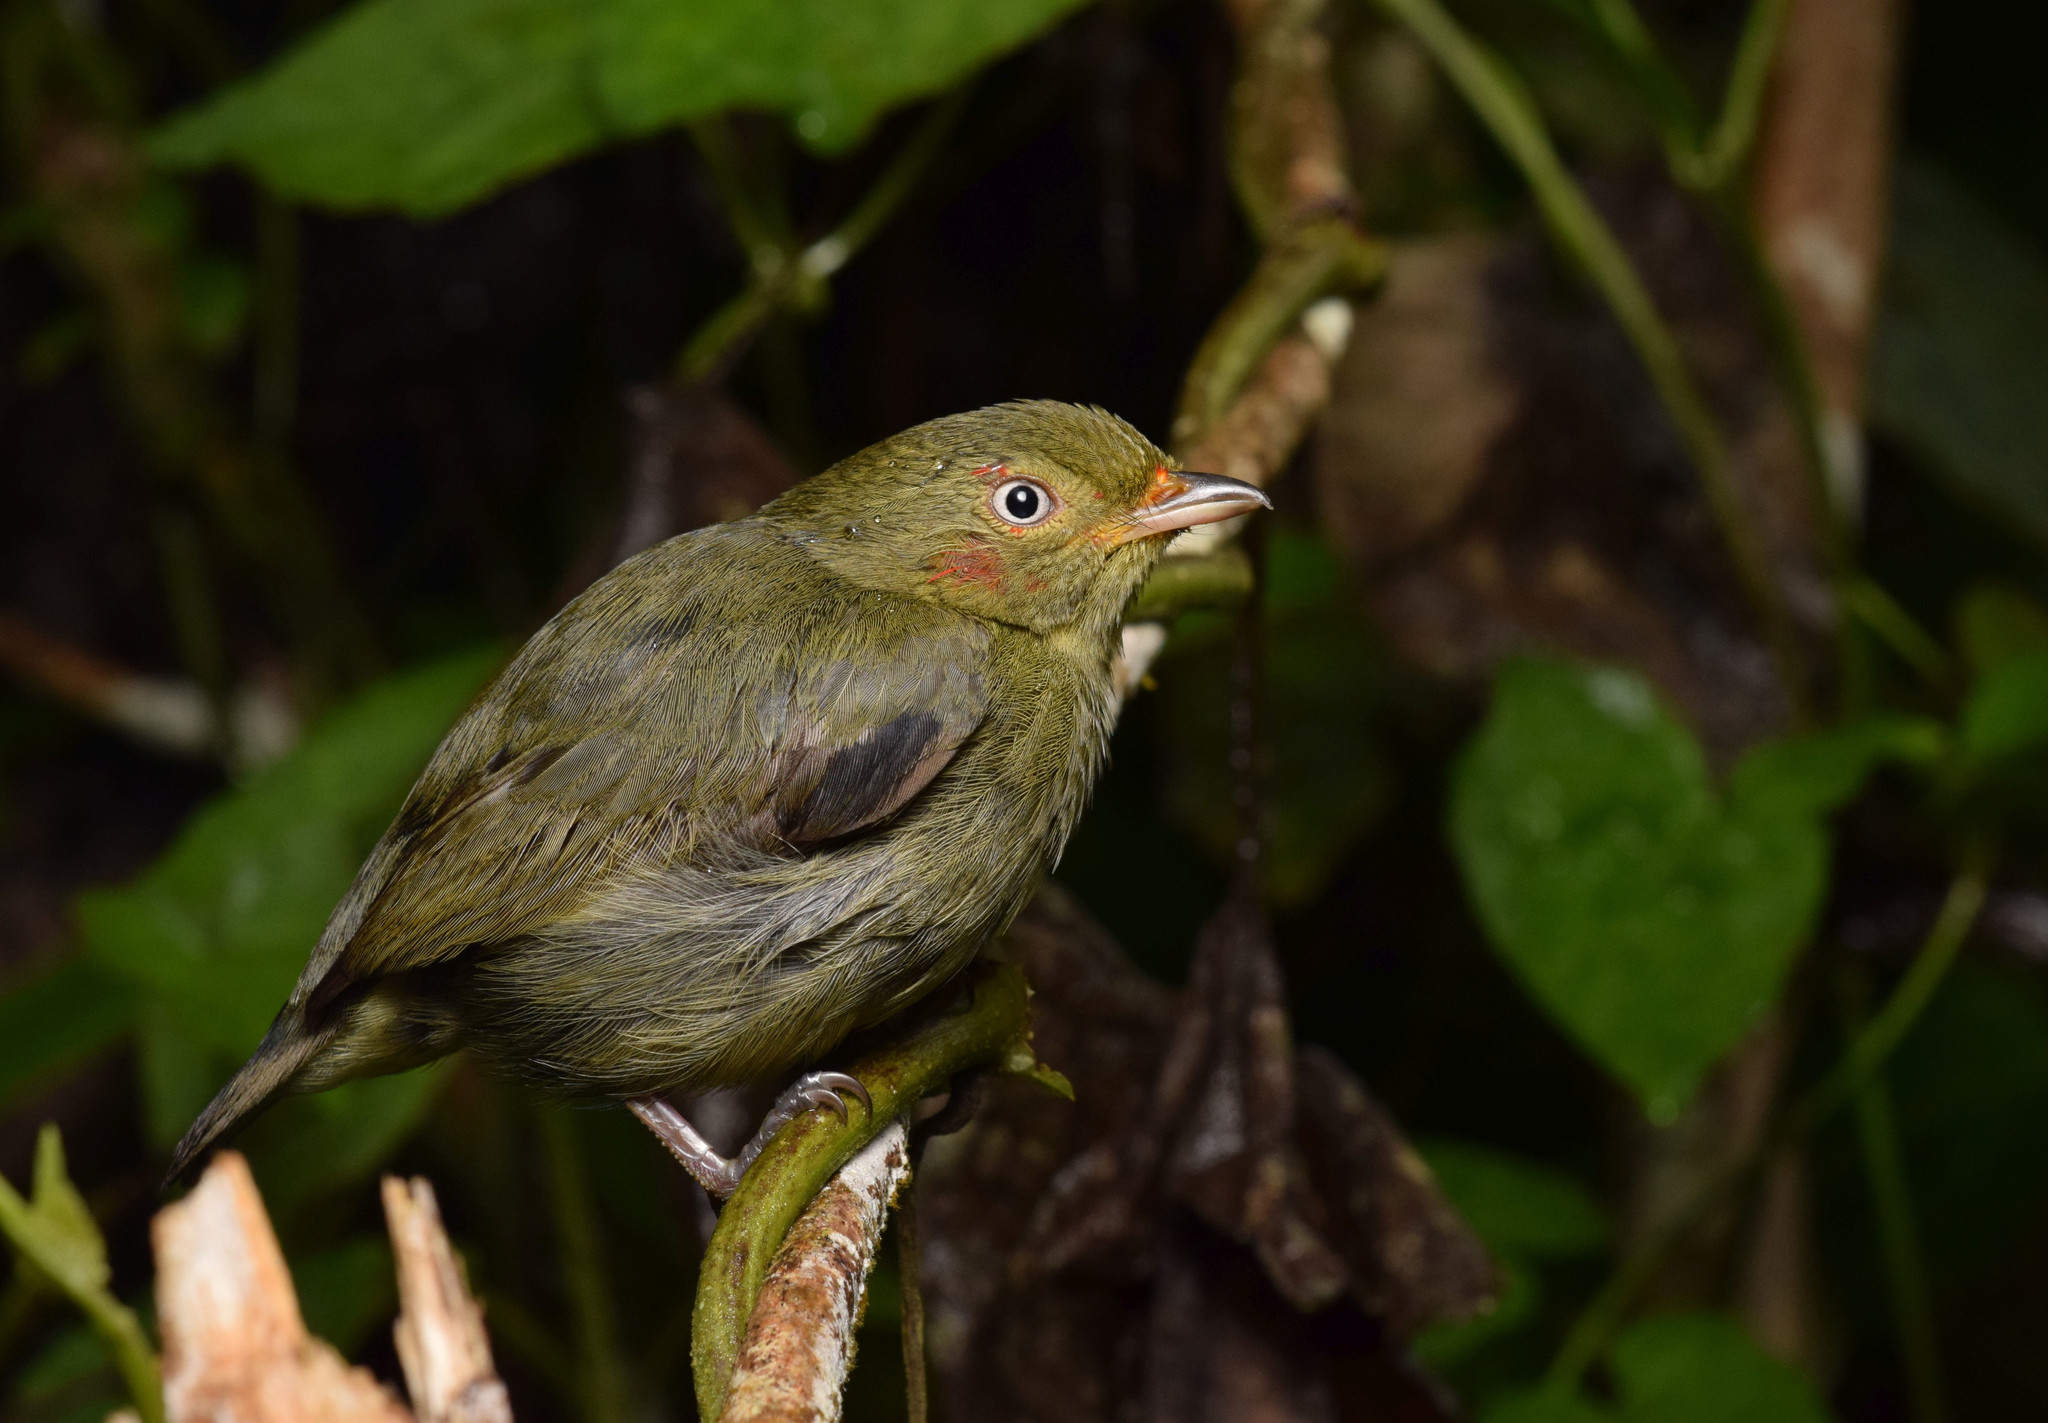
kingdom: Animalia
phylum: Chordata
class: Aves
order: Passeriformes
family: Pipridae
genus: Pipra
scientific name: Pipra mentalis
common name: Red-capped manakin
